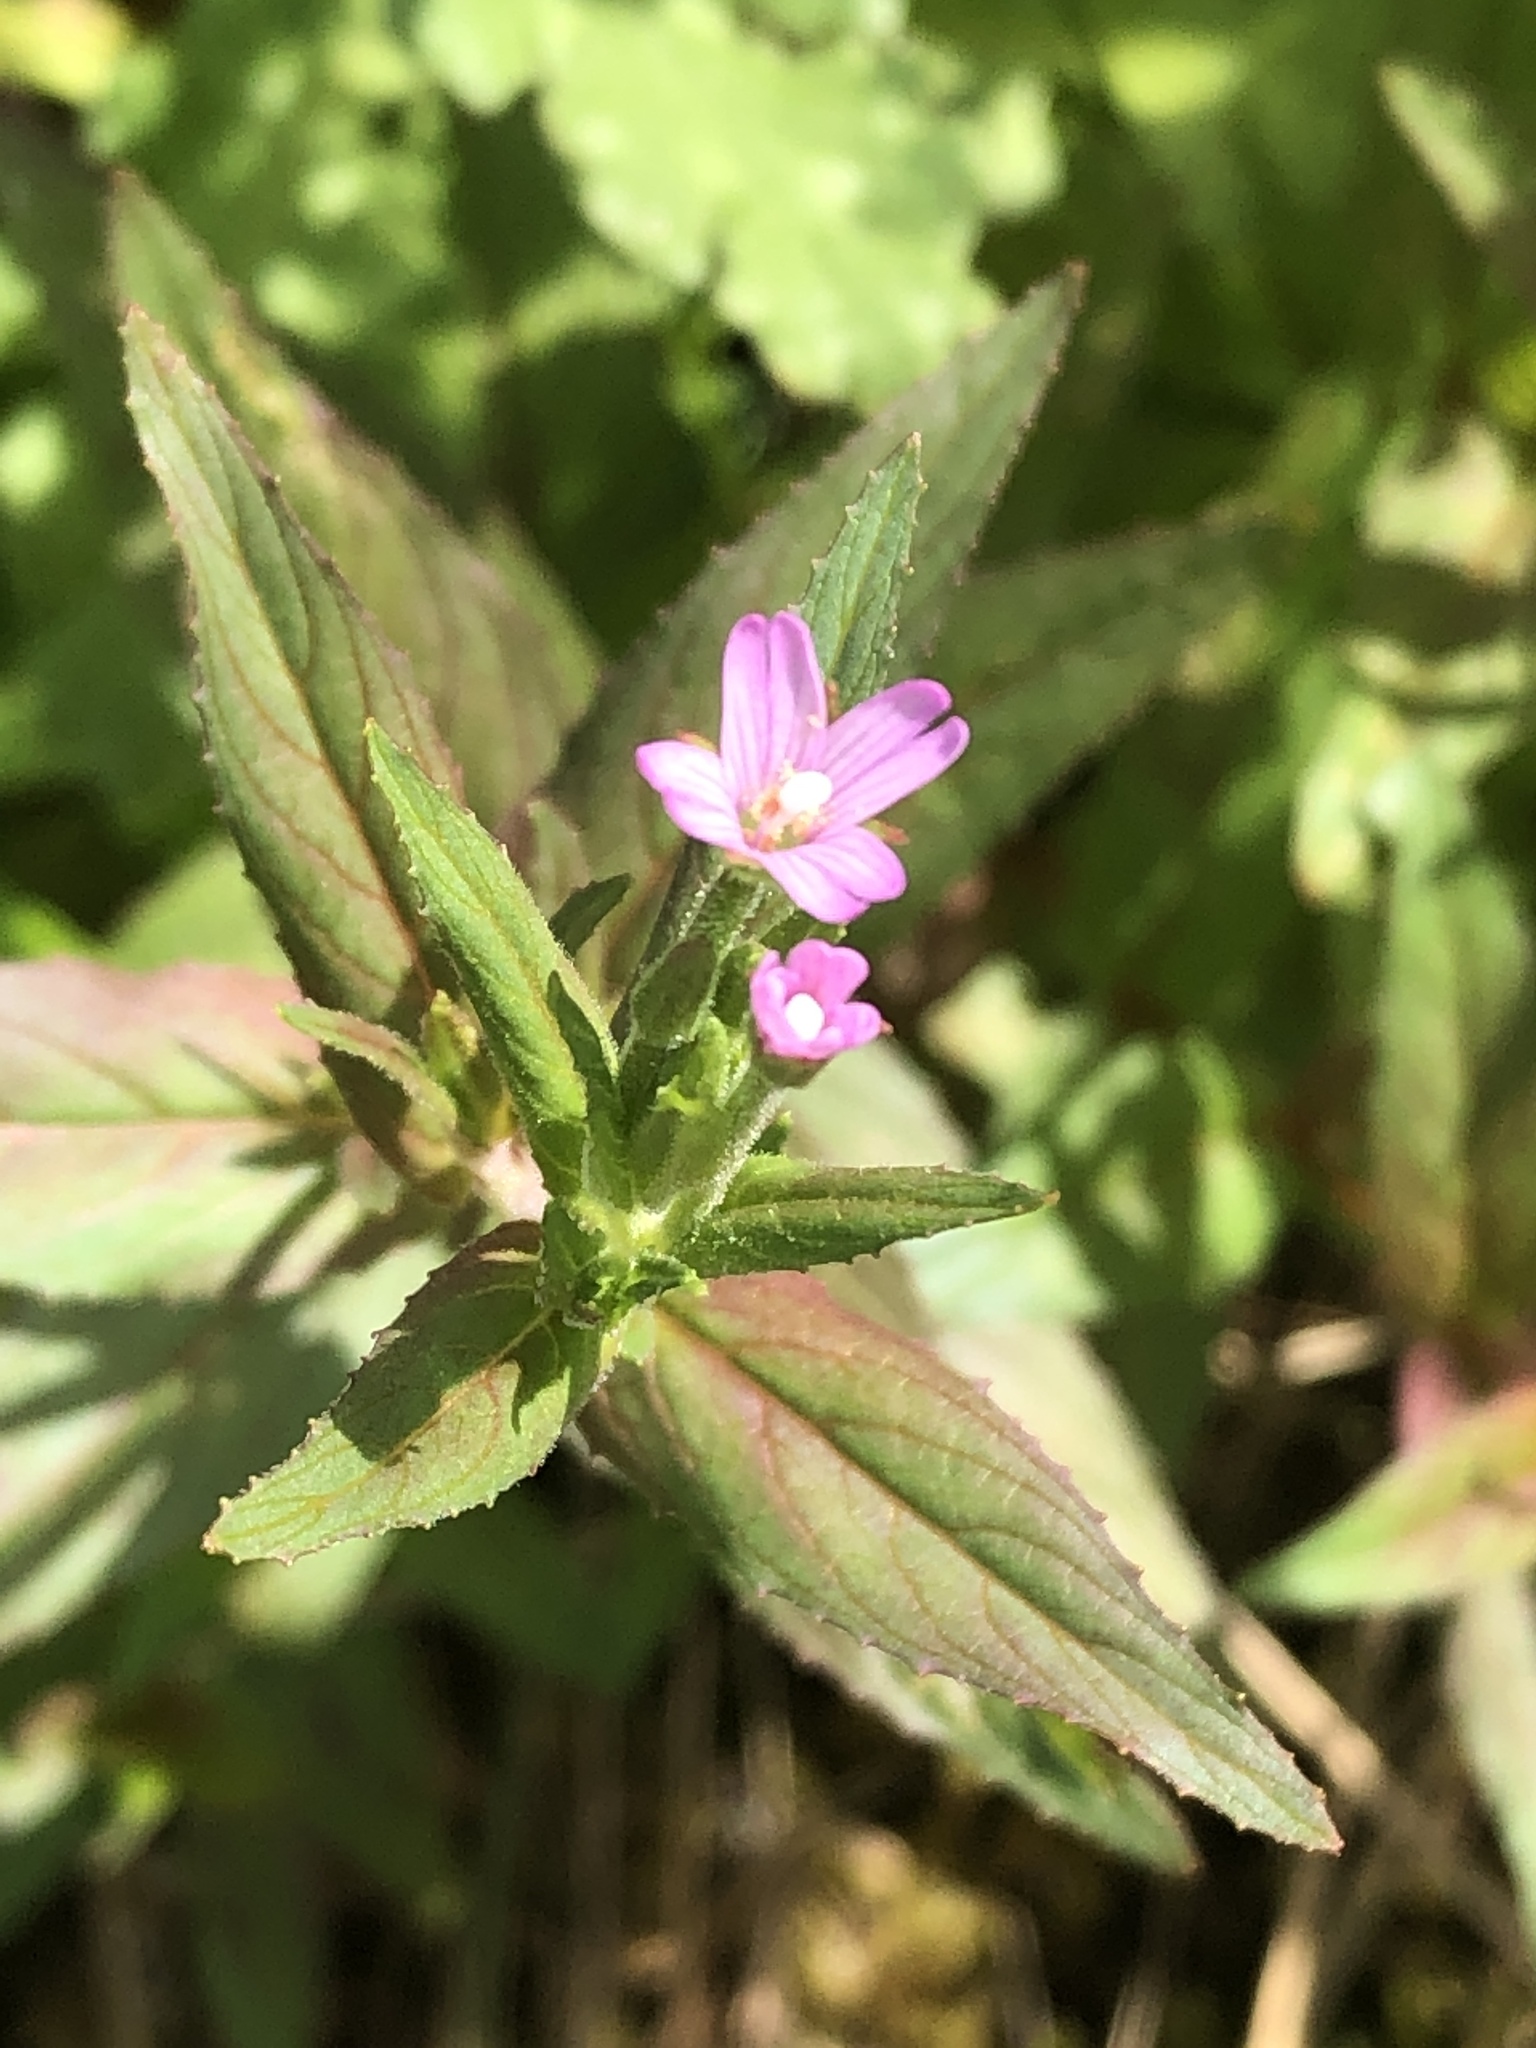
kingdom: Plantae
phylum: Tracheophyta
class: Magnoliopsida
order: Myrtales
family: Onagraceae
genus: Epilobium
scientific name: Epilobium ciliatum
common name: American willowherb
